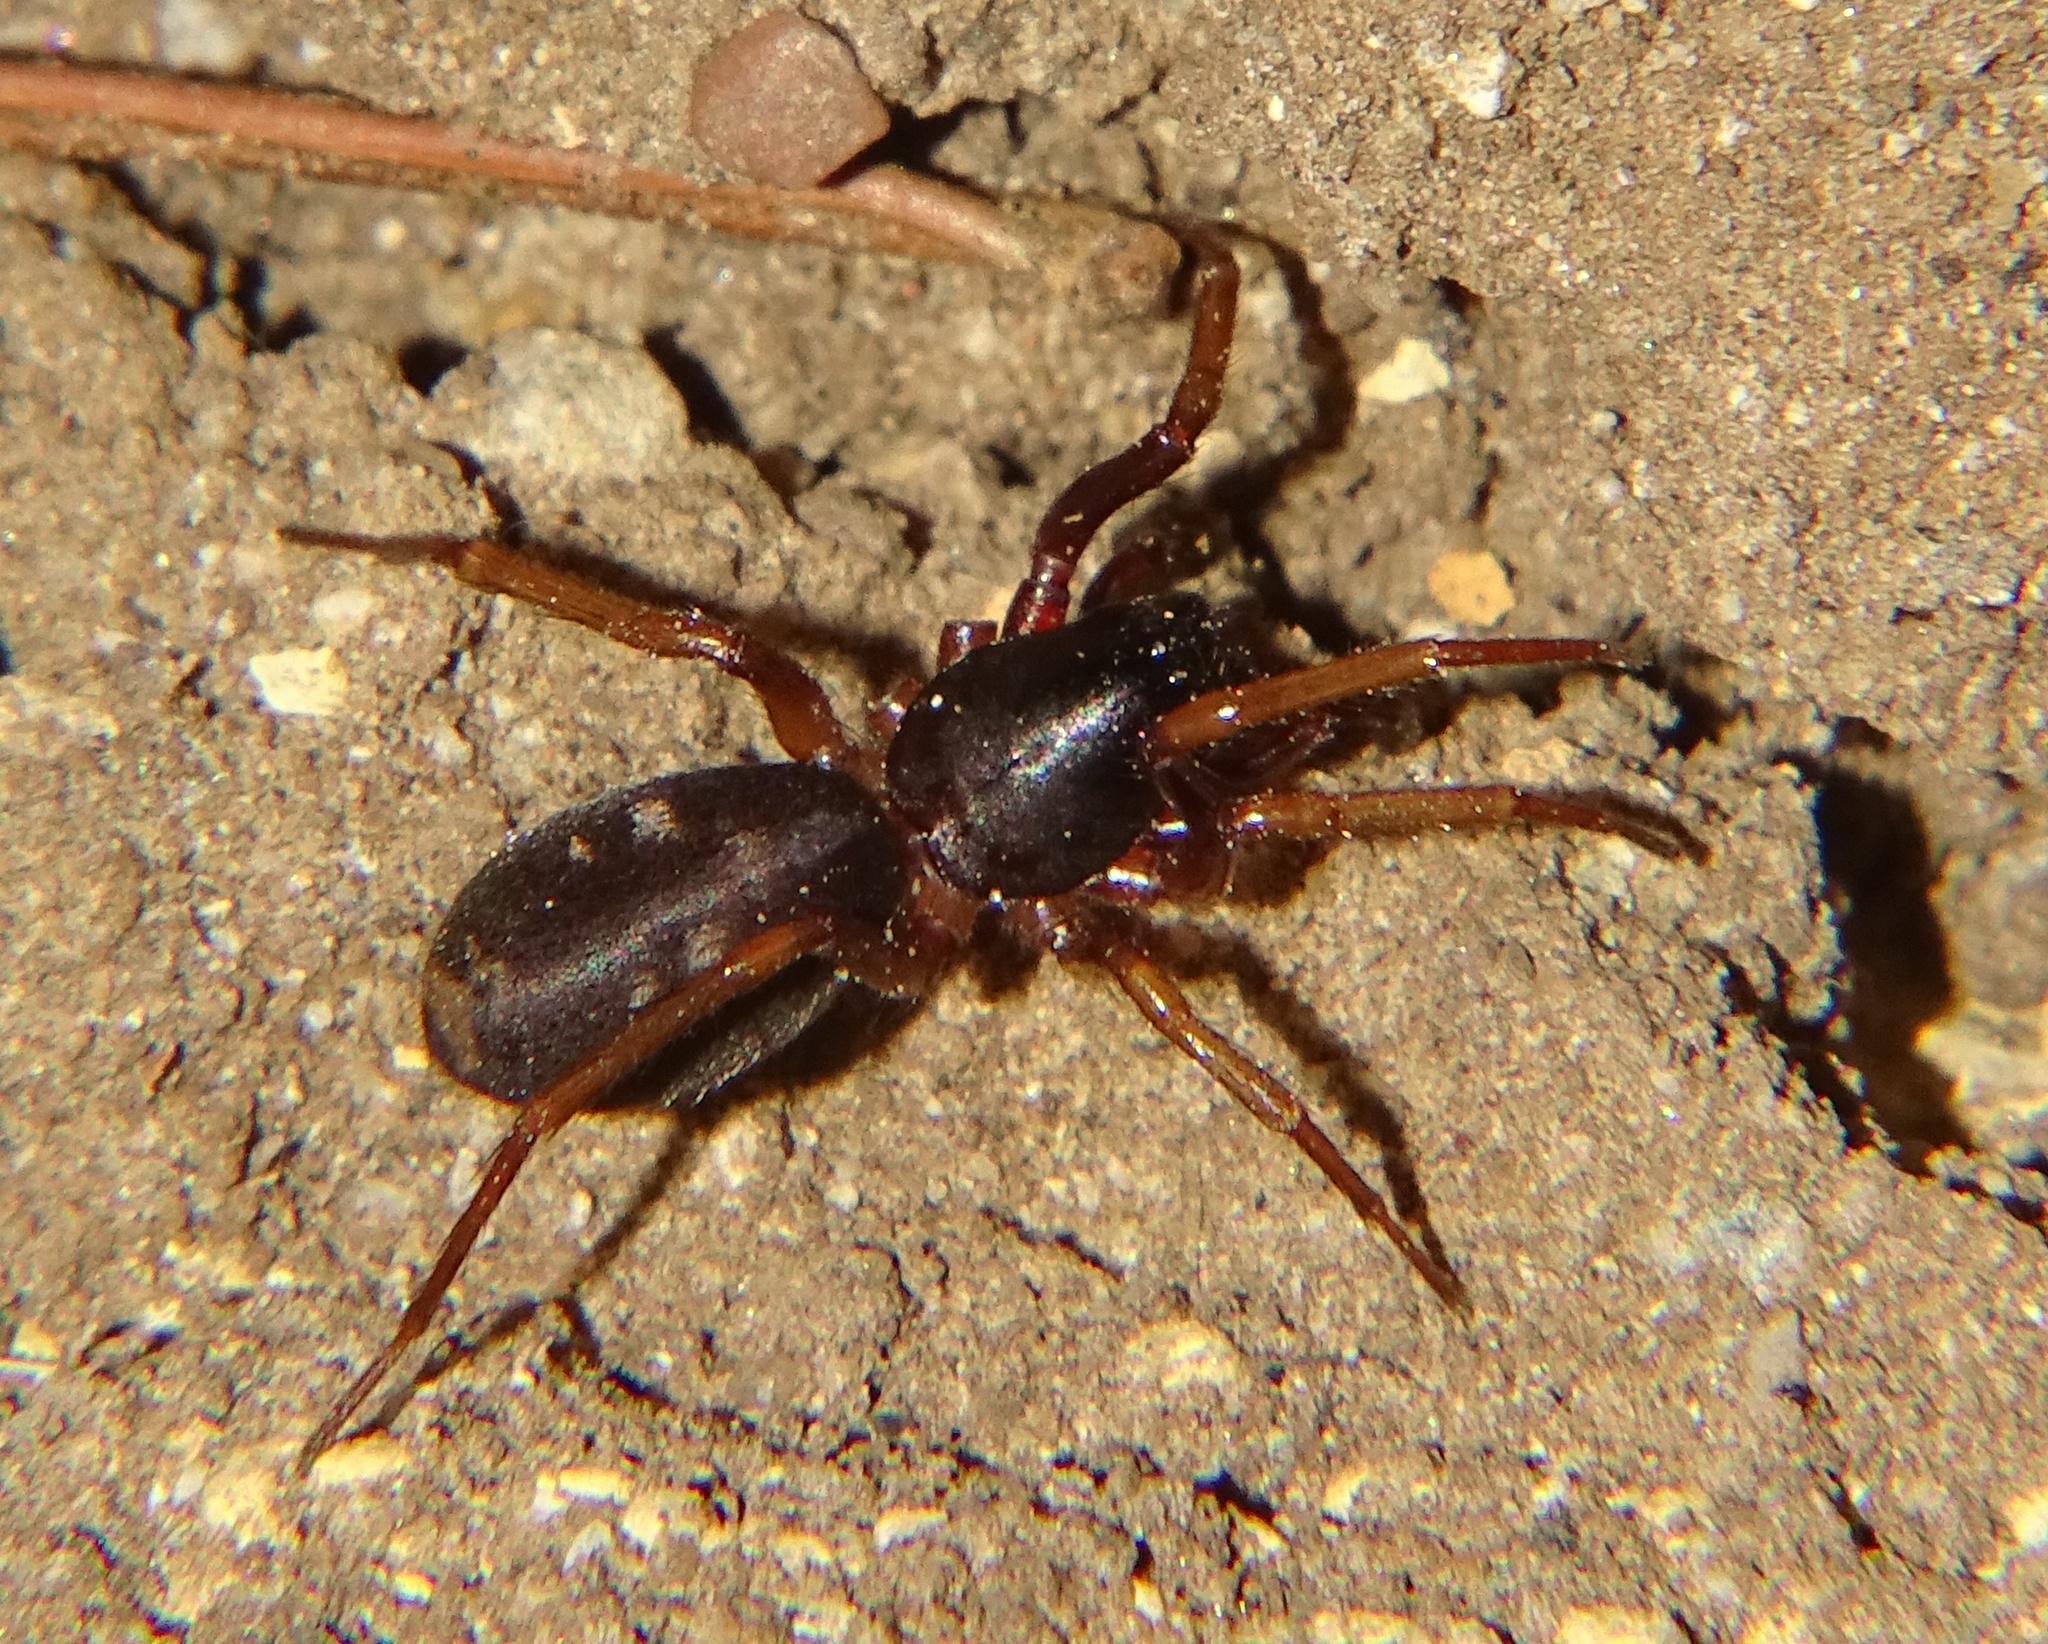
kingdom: Animalia
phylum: Arthropoda
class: Arachnida
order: Araneae
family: Corinnidae
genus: Falconina
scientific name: Falconina gracilis
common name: Antmimic spider
